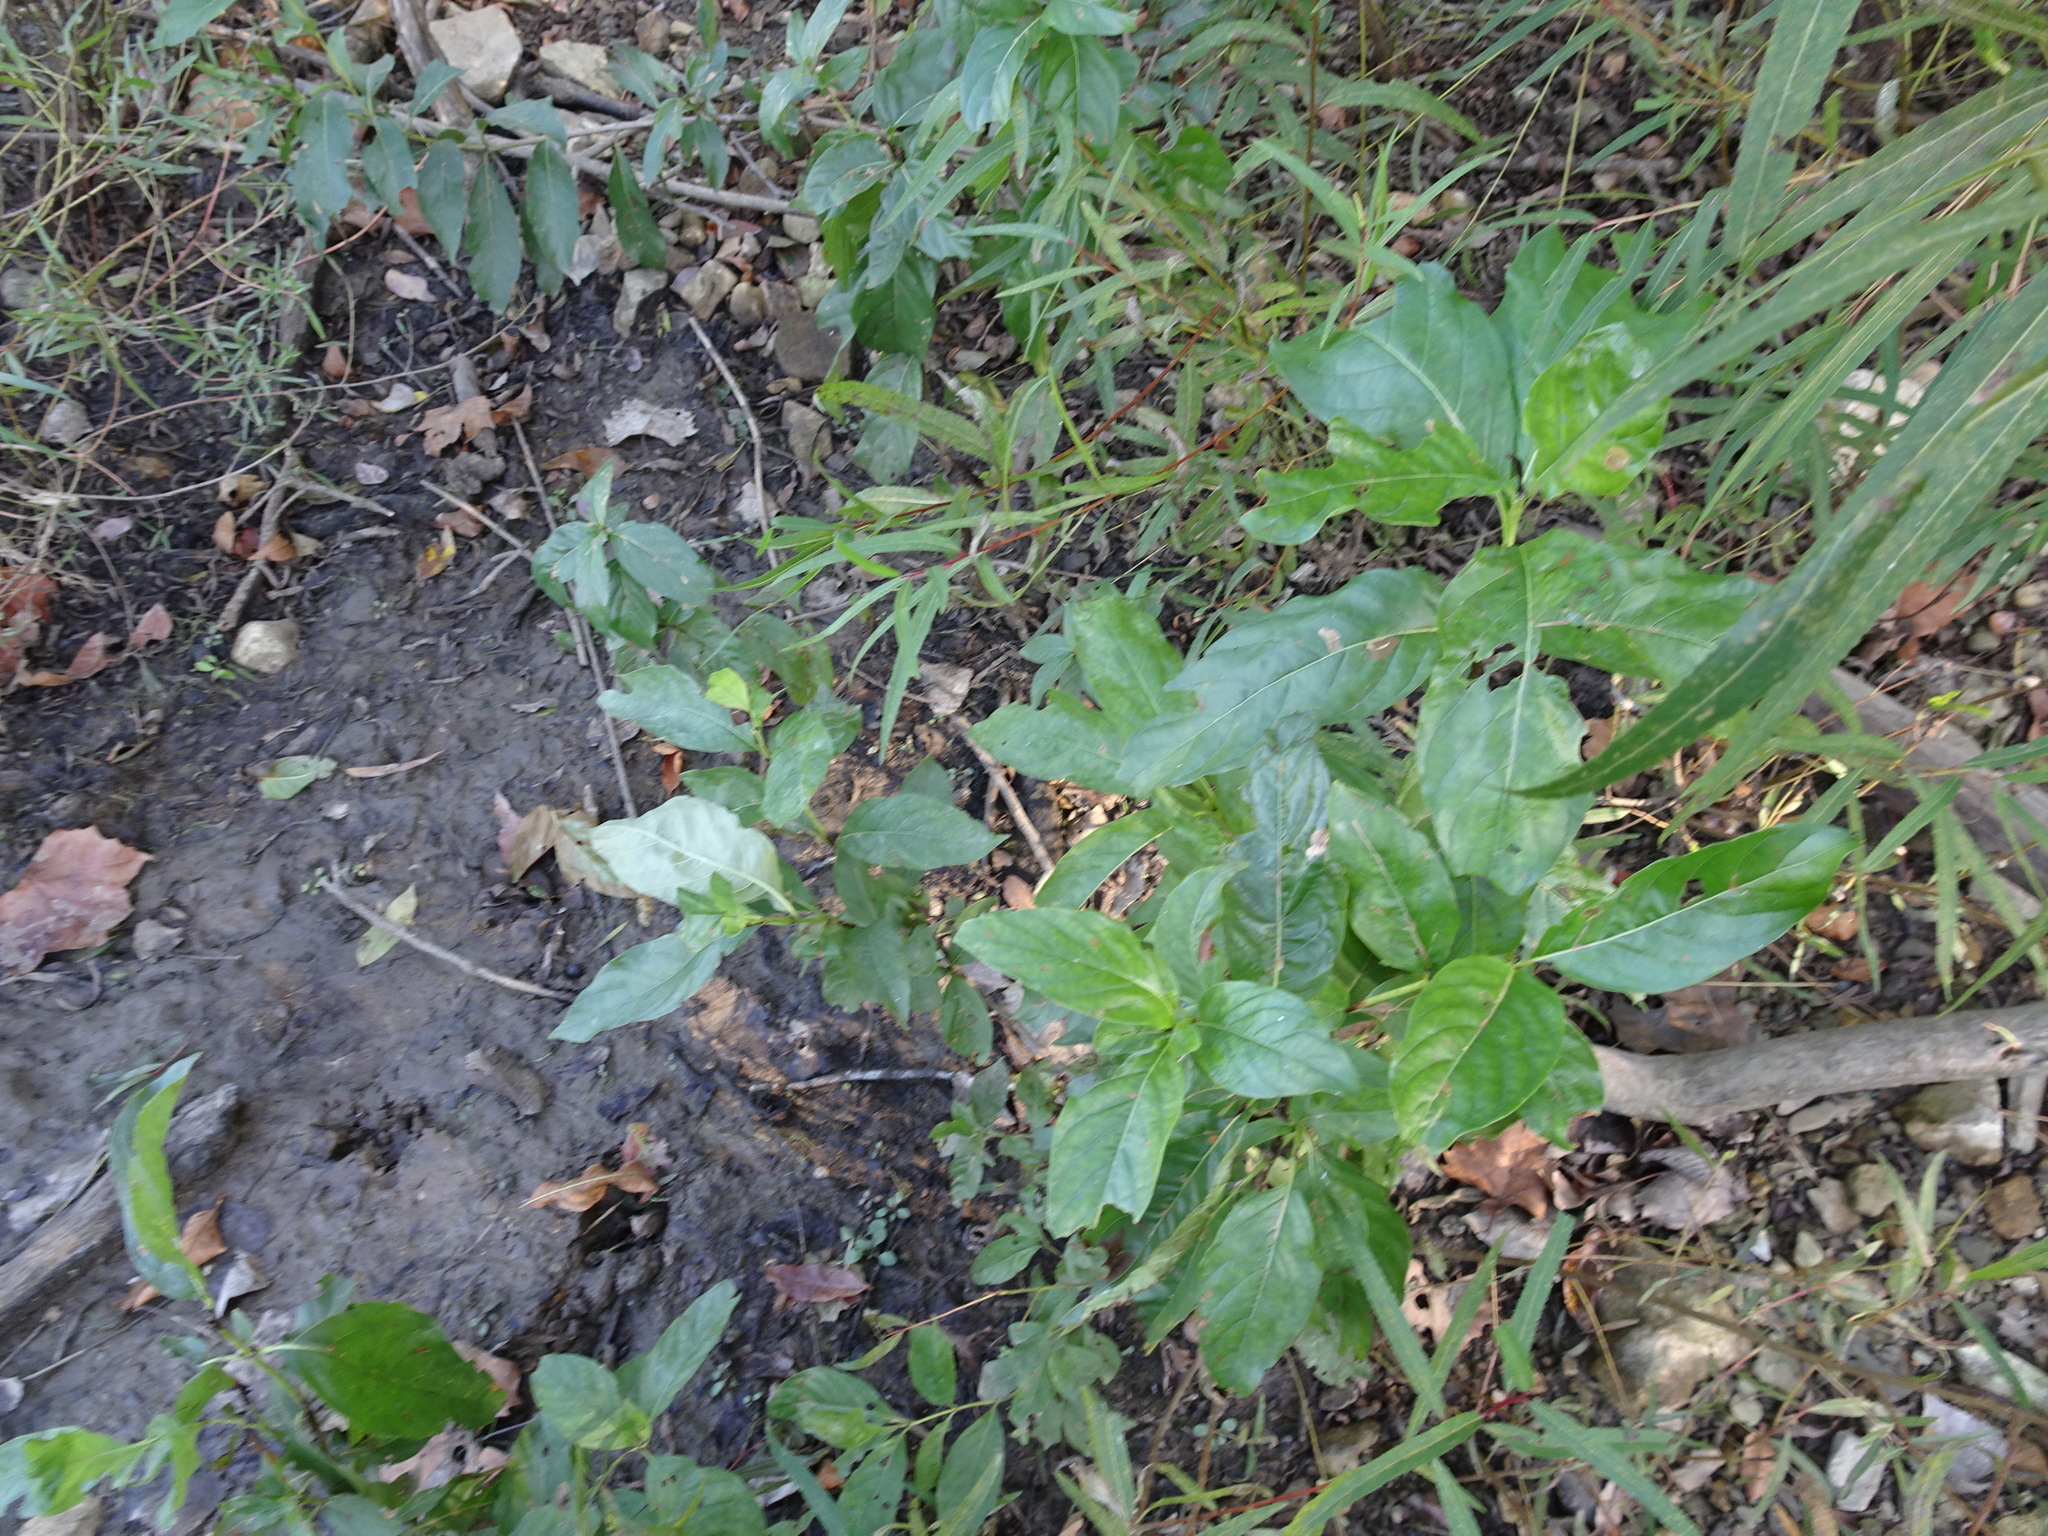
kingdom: Plantae
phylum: Tracheophyta
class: Magnoliopsida
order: Gentianales
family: Rubiaceae
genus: Cephalanthus
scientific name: Cephalanthus occidentalis
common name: Button-willow
